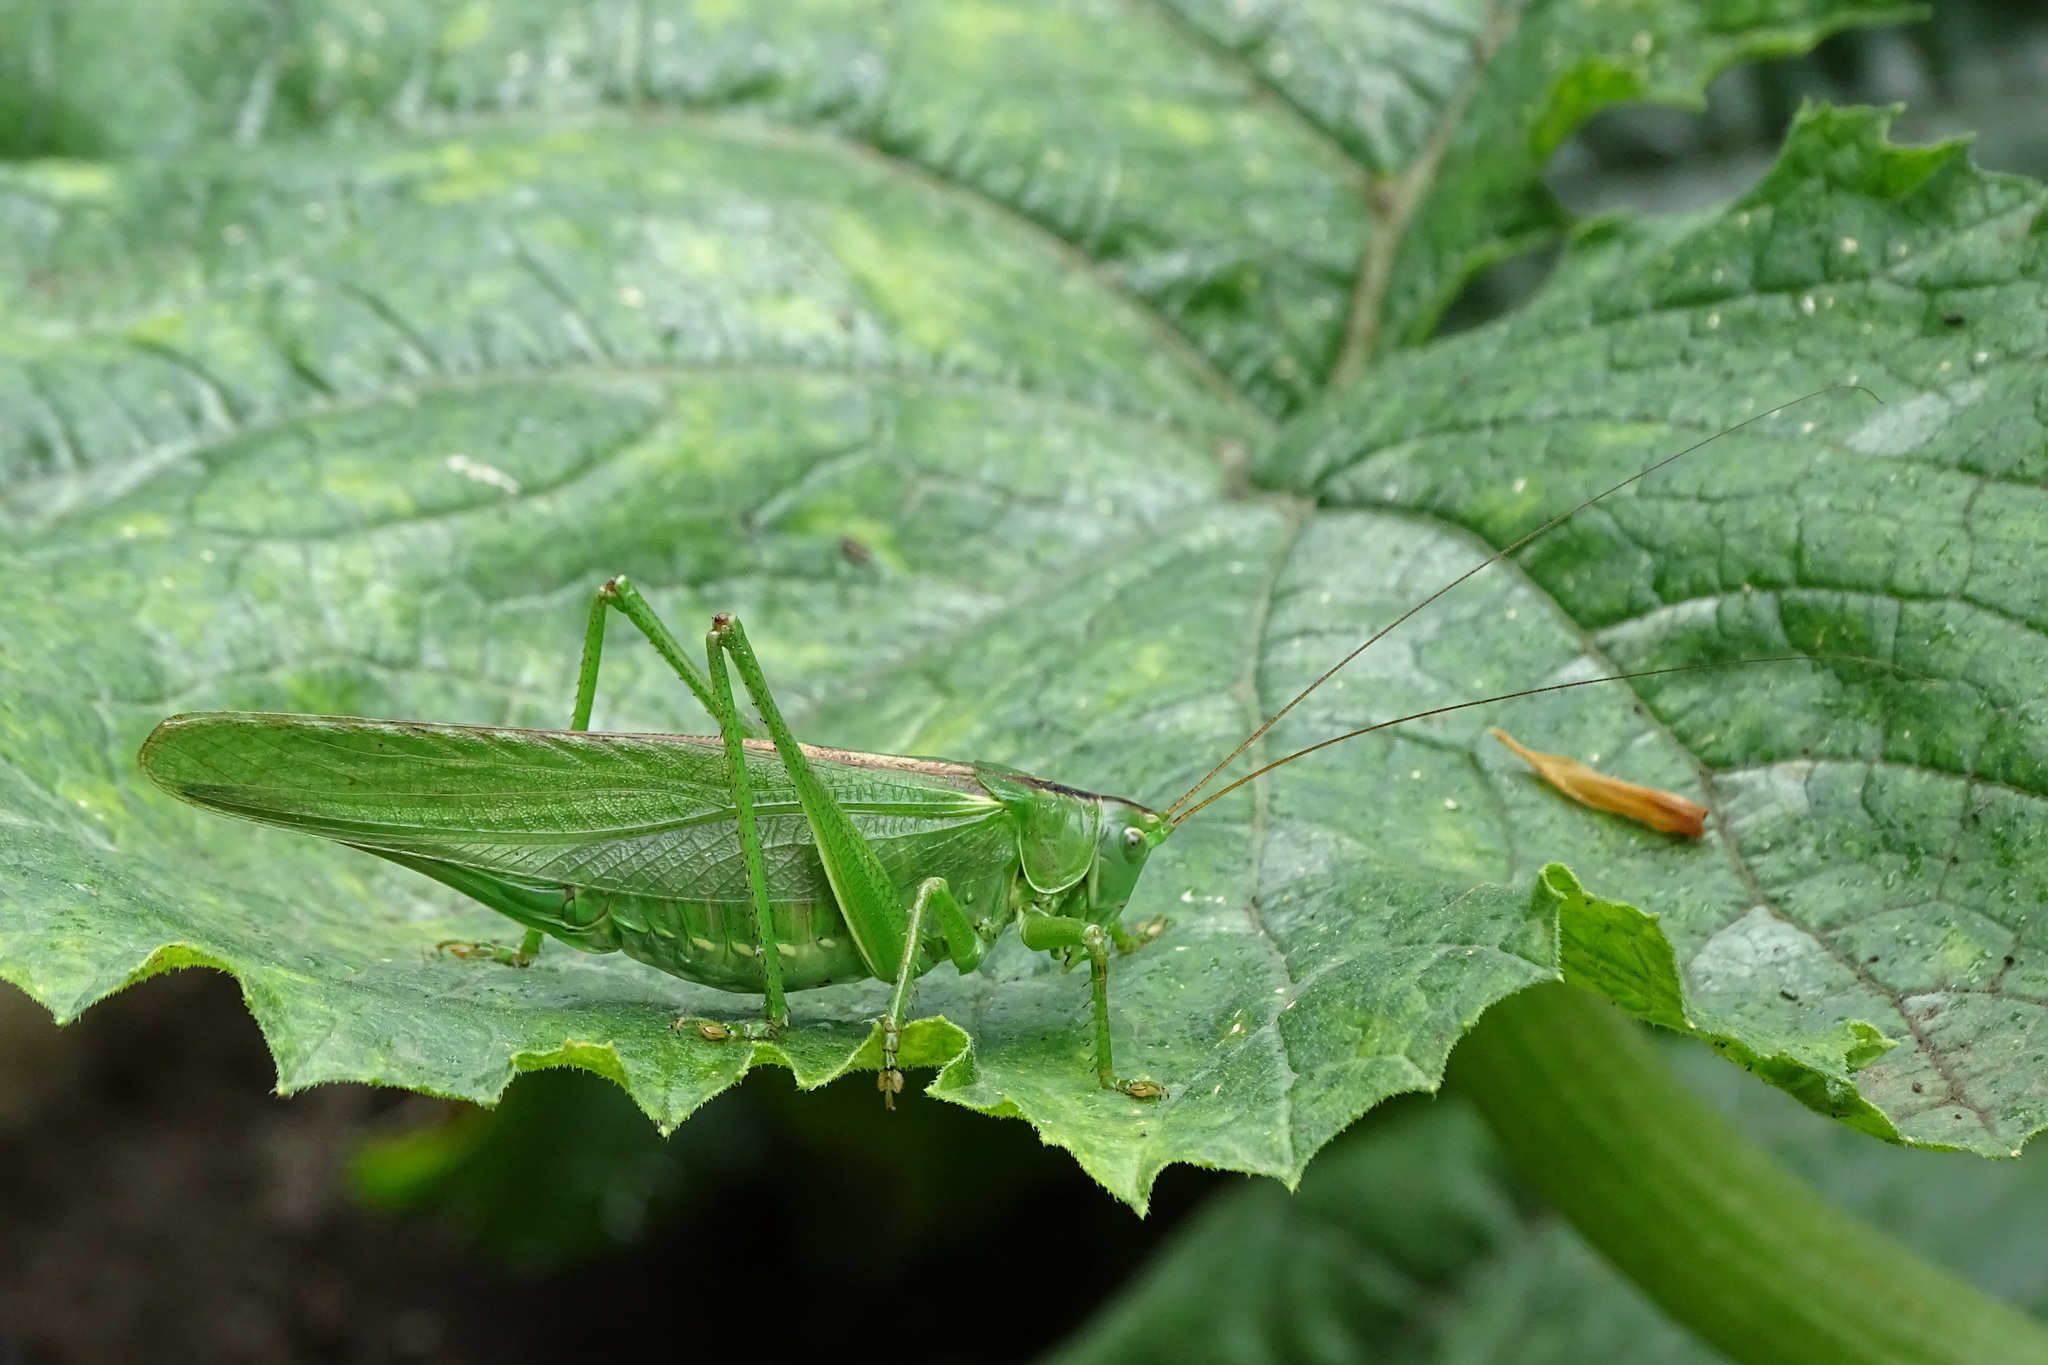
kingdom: Animalia
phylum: Arthropoda
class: Insecta
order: Orthoptera
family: Tettigoniidae
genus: Tettigonia
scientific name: Tettigonia viridissima
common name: Great green bush-cricket
